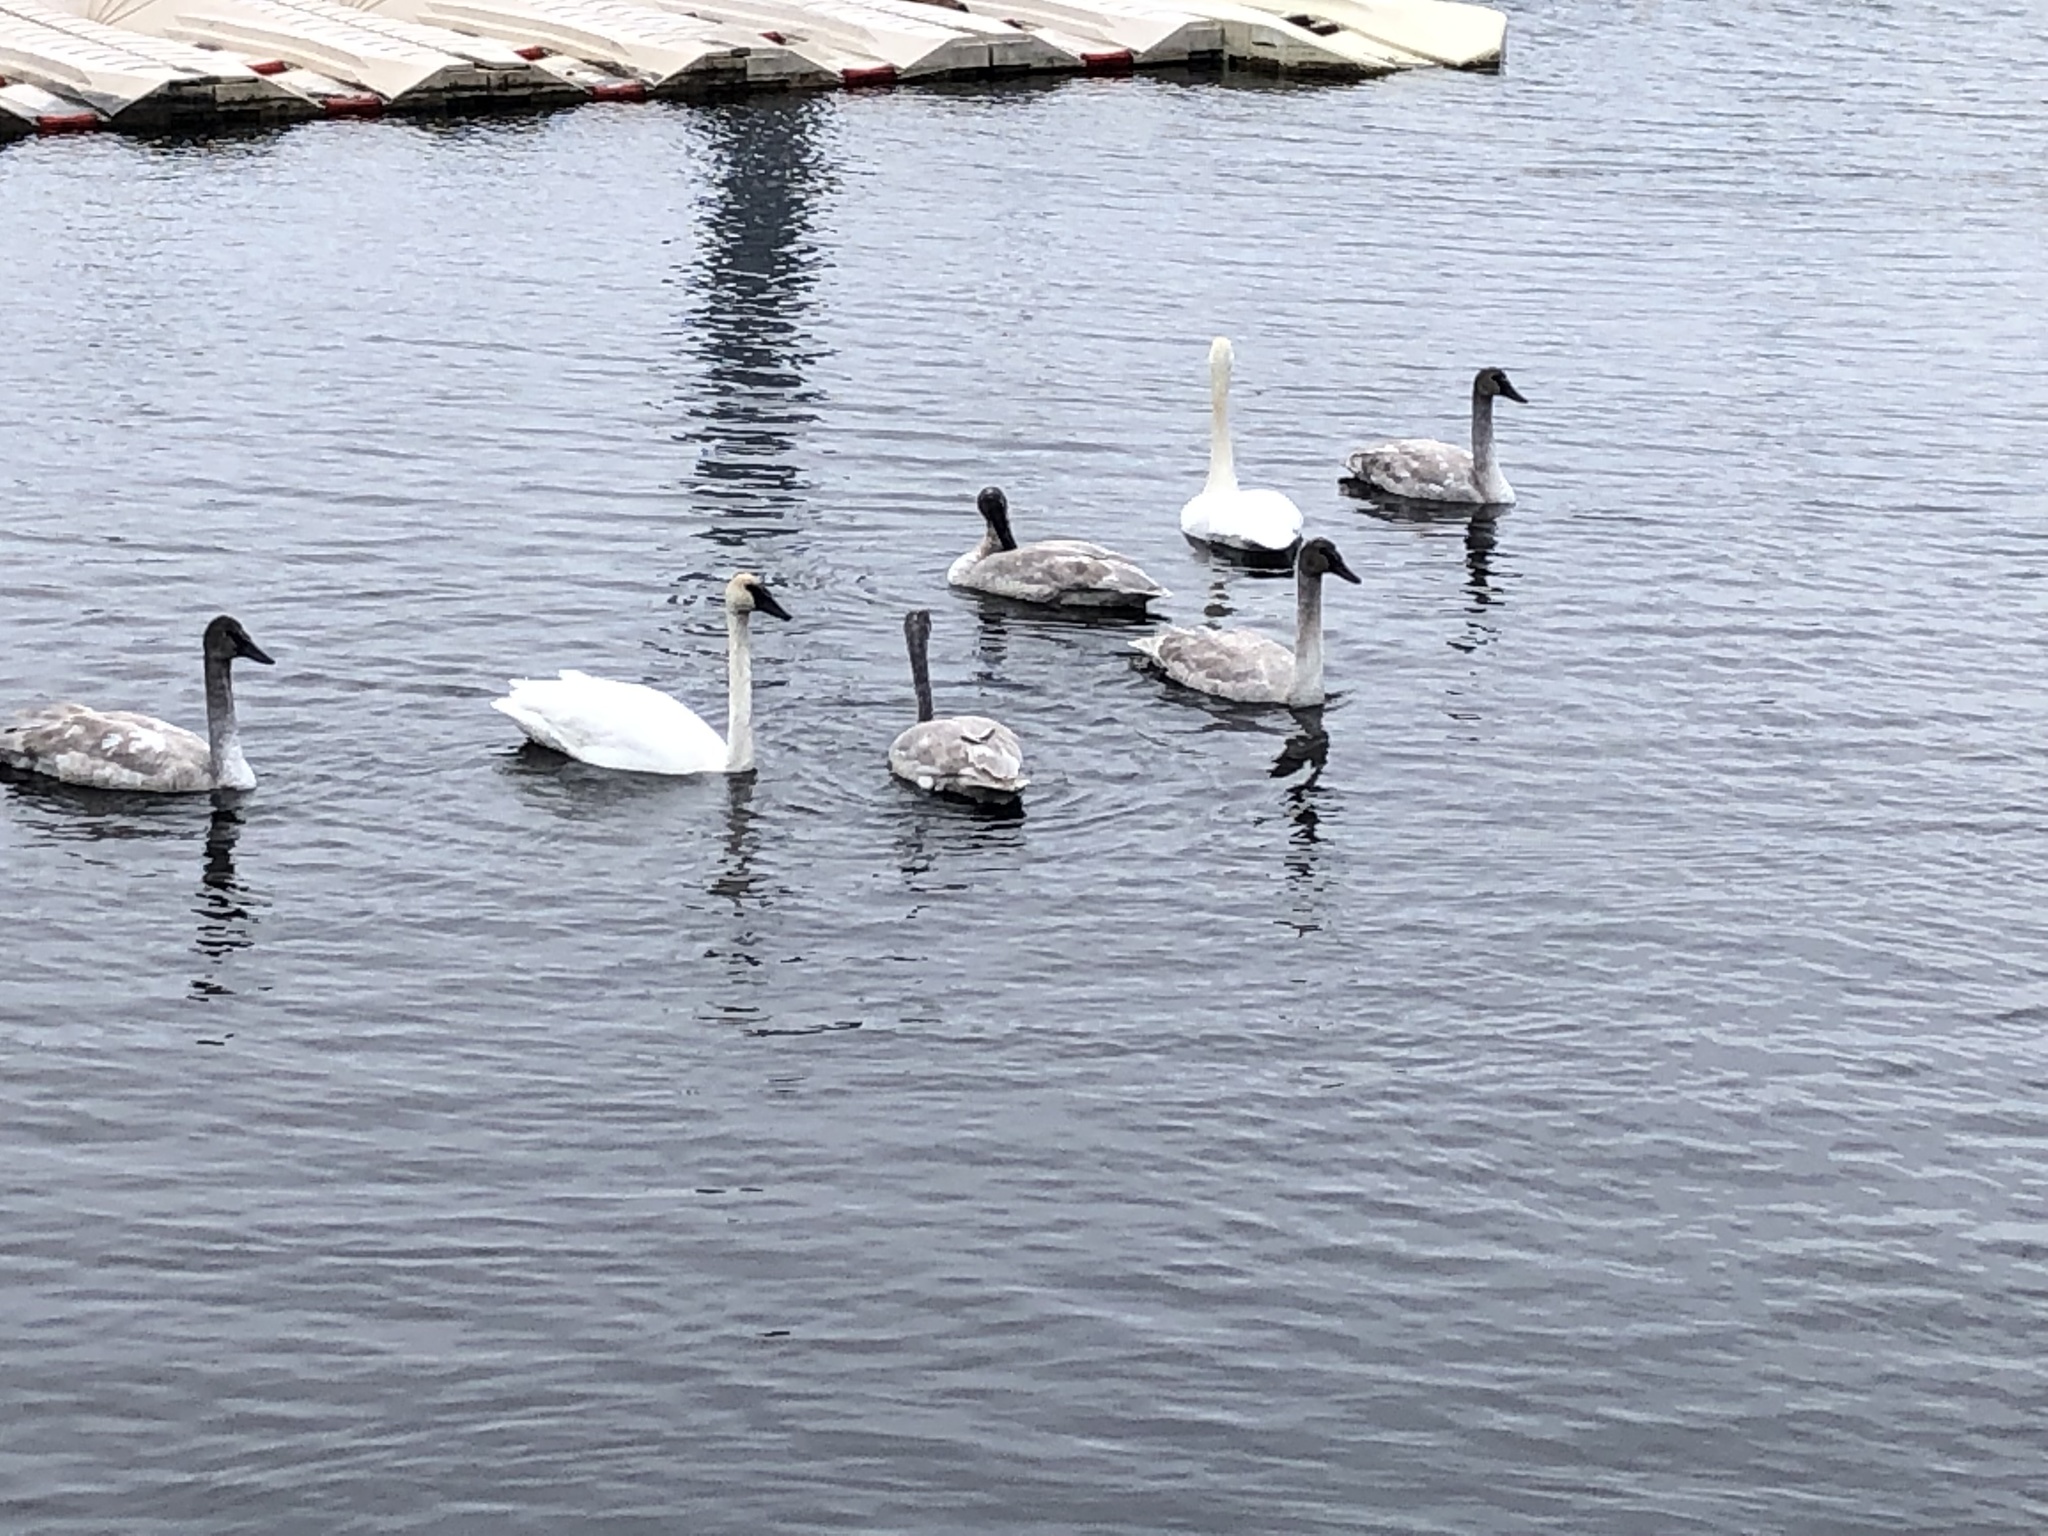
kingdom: Animalia
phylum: Chordata
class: Aves
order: Anseriformes
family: Anatidae
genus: Cygnus
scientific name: Cygnus buccinator
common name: Trumpeter swan
